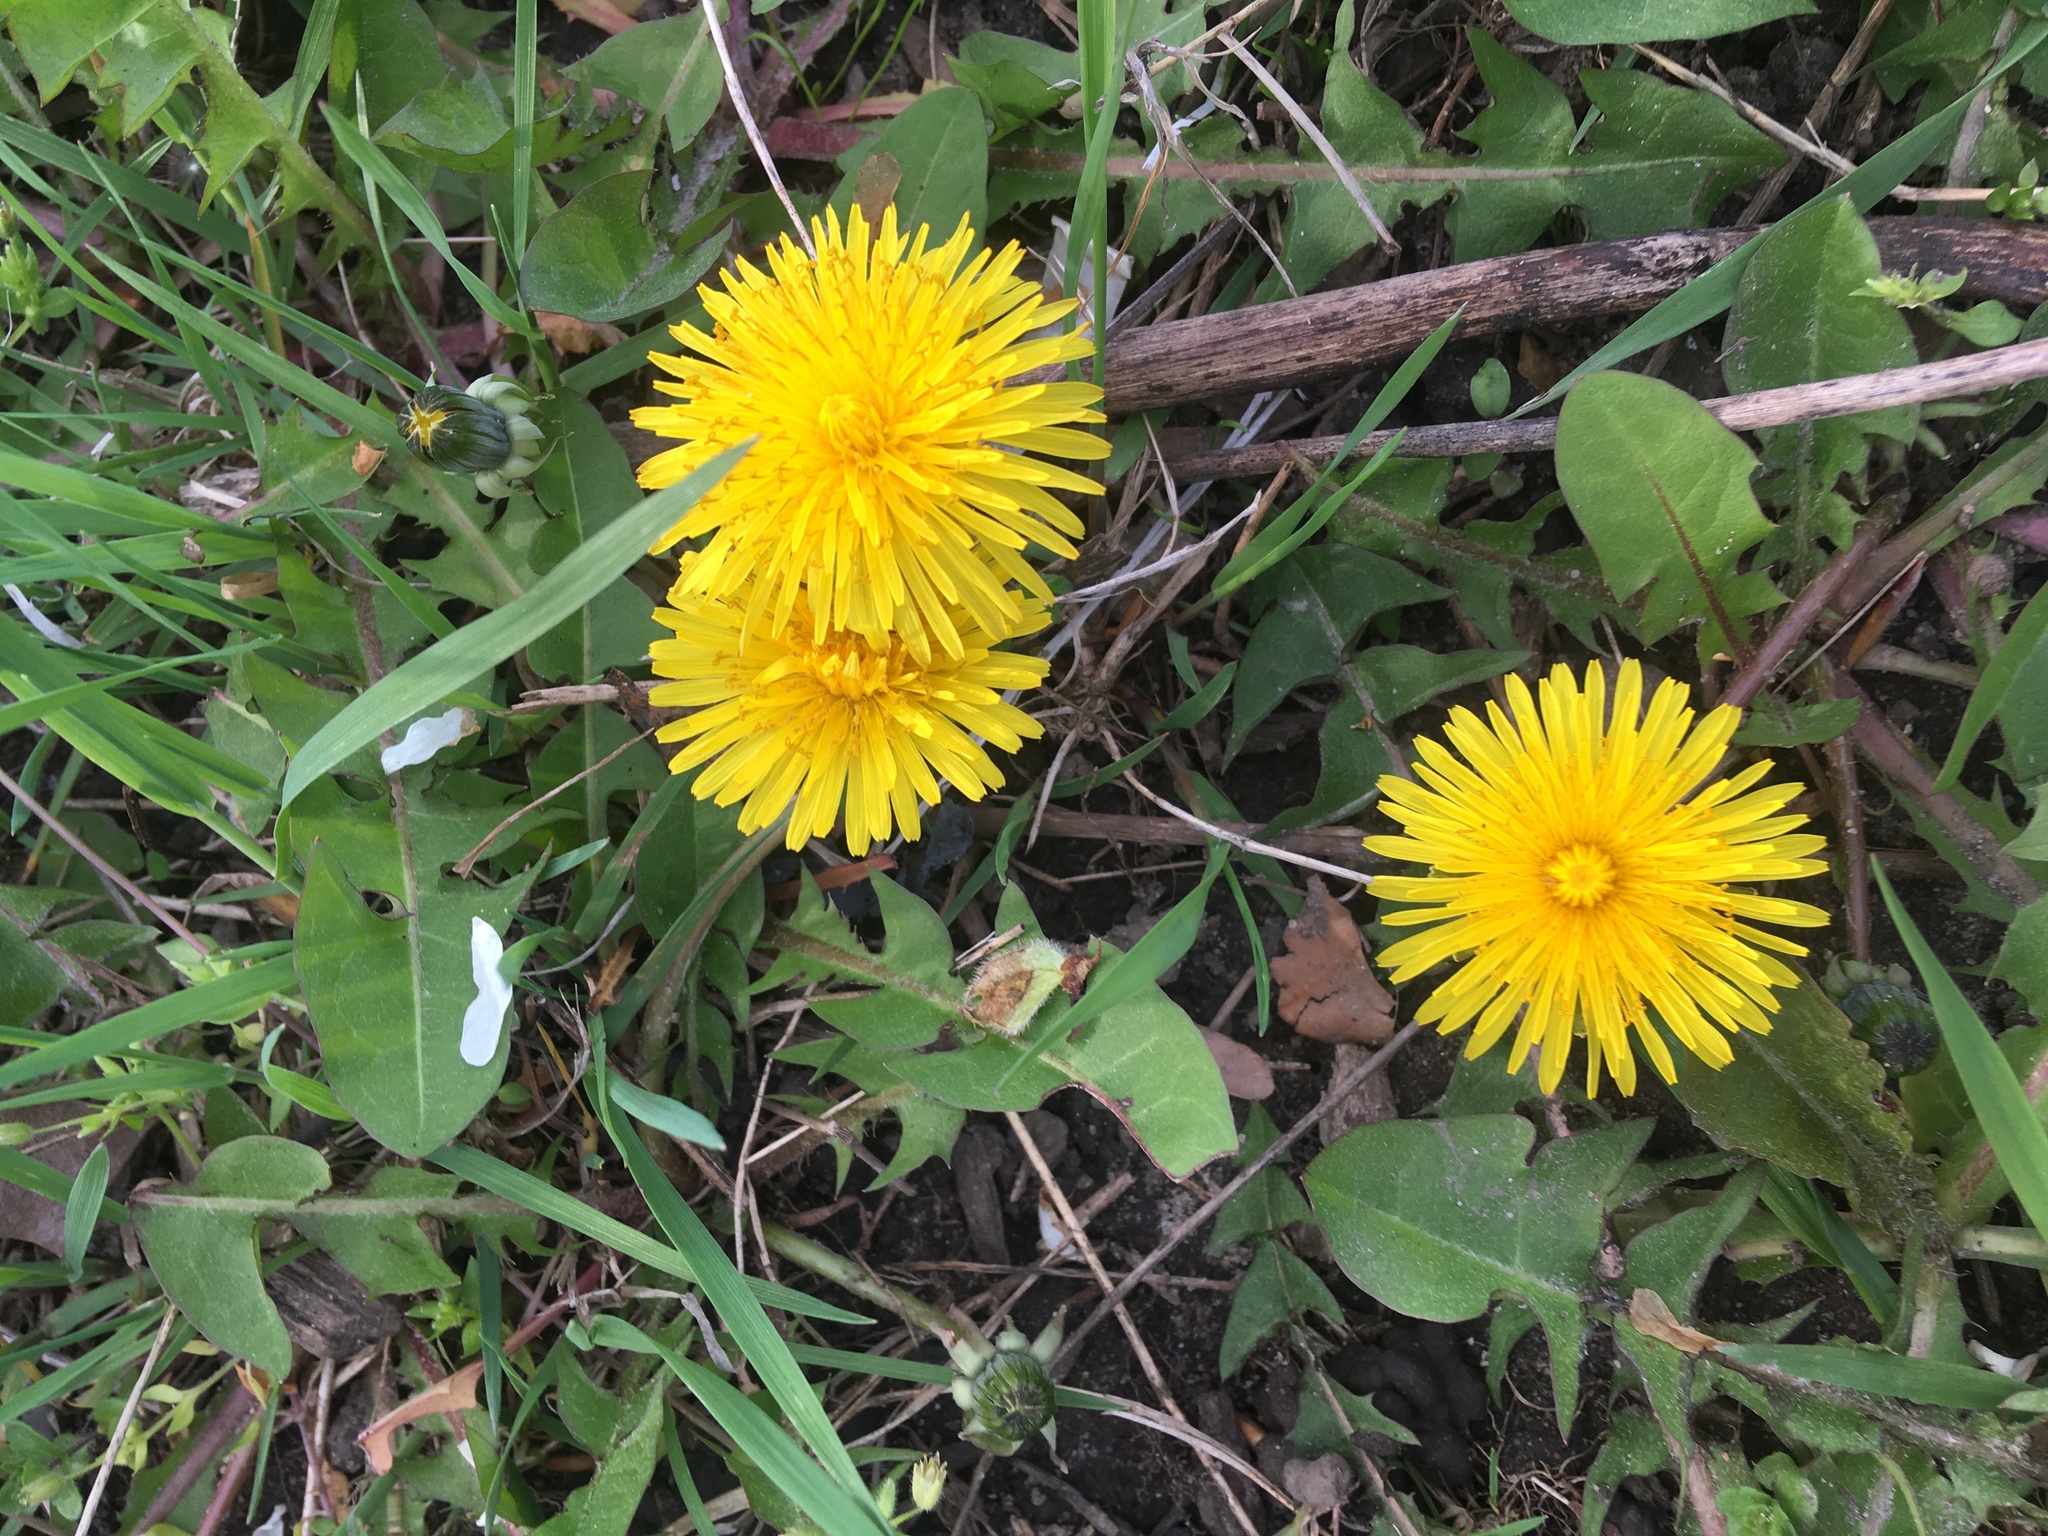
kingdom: Plantae
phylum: Tracheophyta
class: Magnoliopsida
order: Asterales
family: Asteraceae
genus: Taraxacum
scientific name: Taraxacum officinale
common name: Common dandelion
